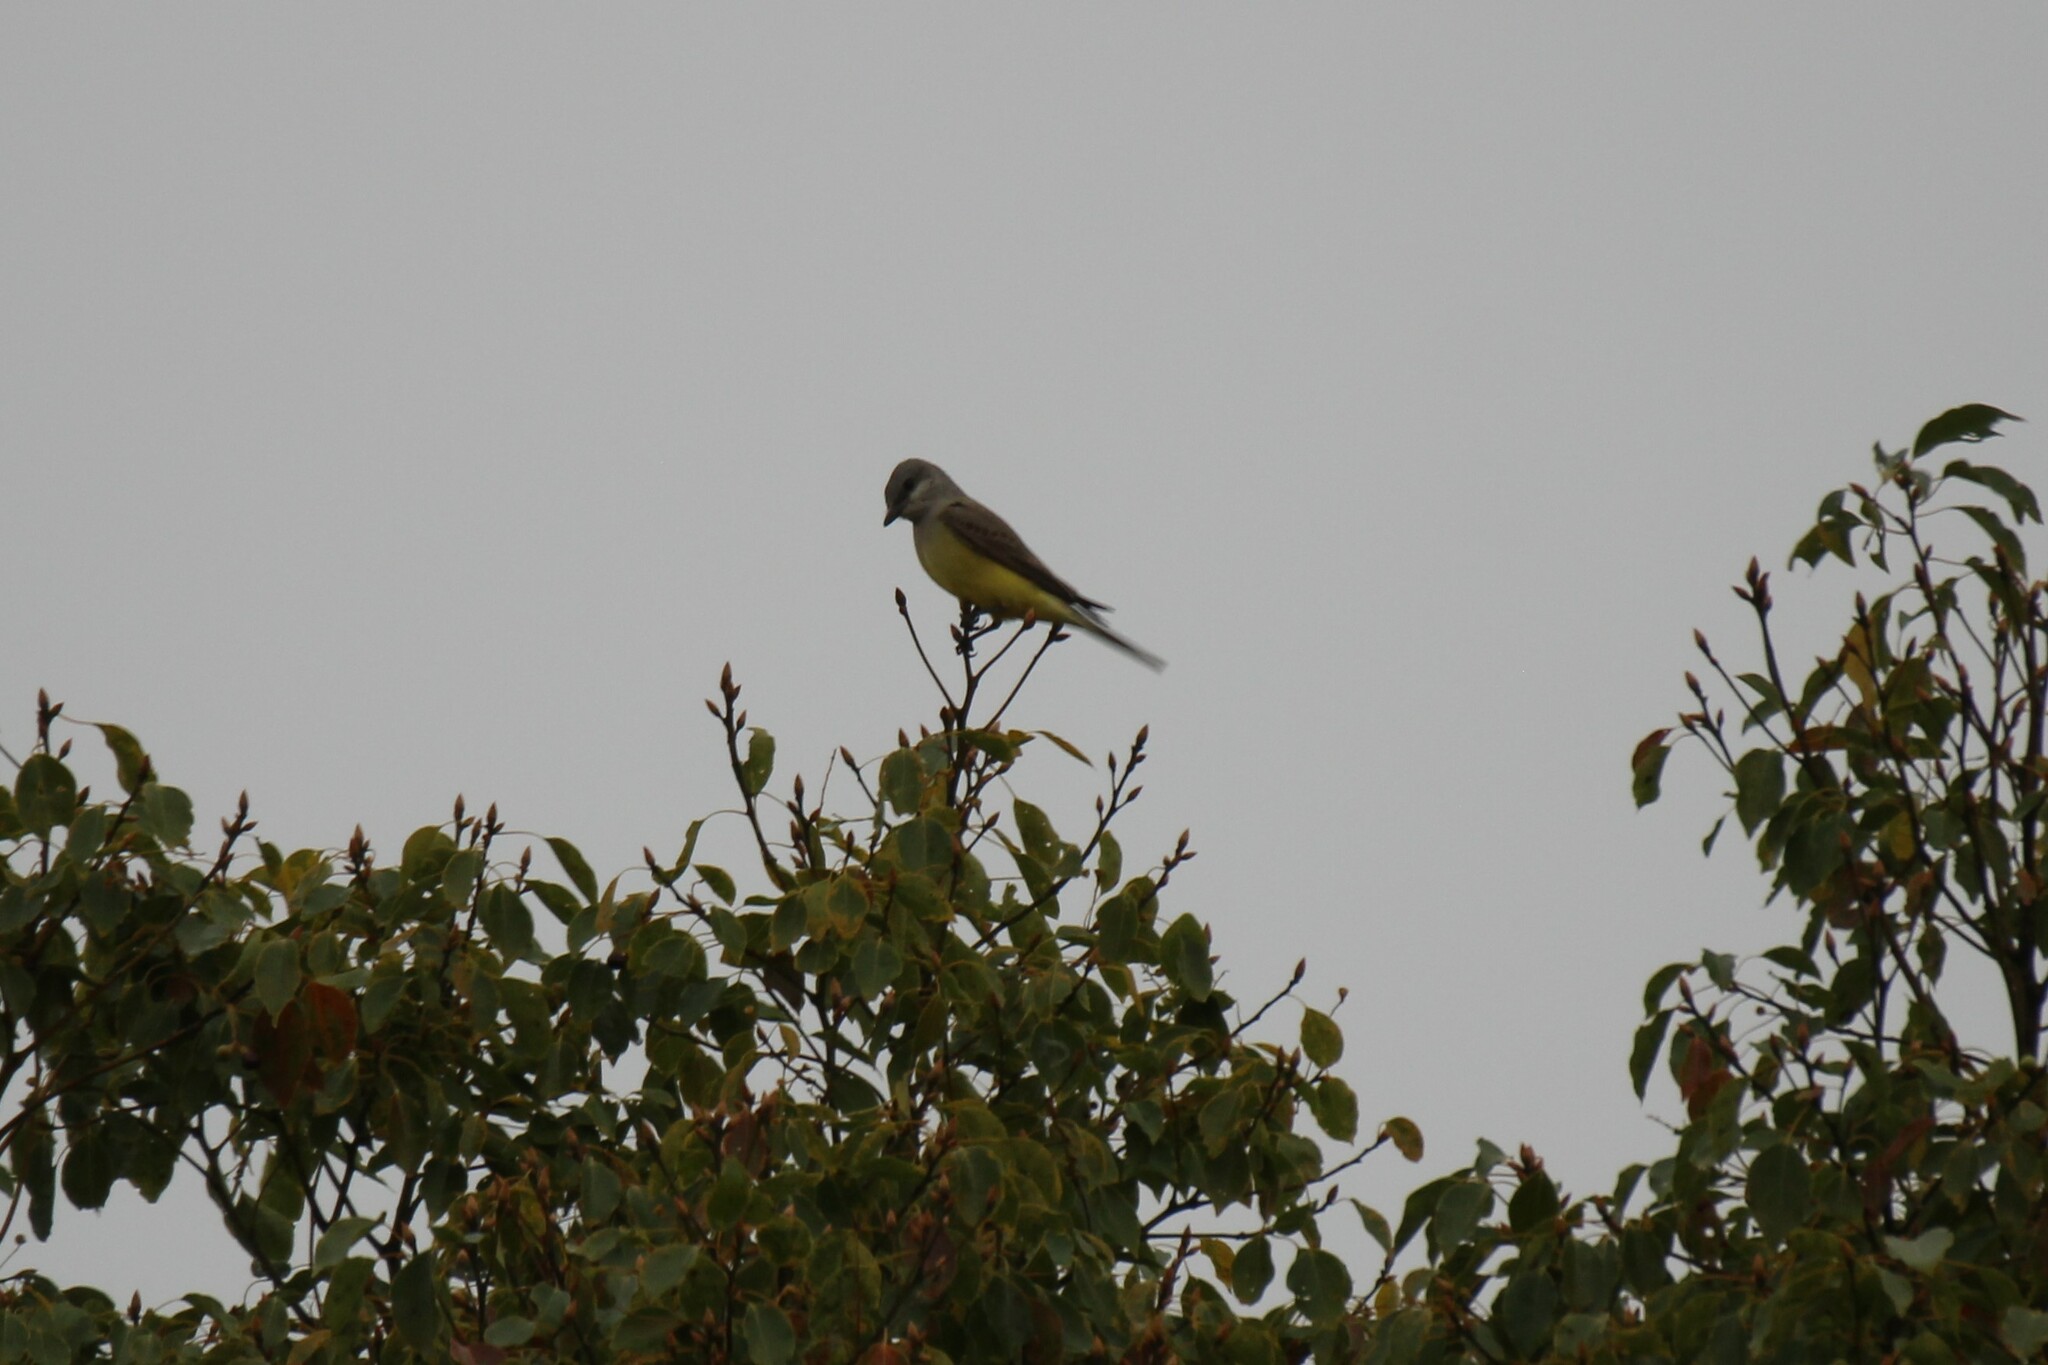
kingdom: Animalia
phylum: Chordata
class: Aves
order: Passeriformes
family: Tyrannidae
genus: Tyrannus
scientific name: Tyrannus verticalis
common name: Western kingbird
